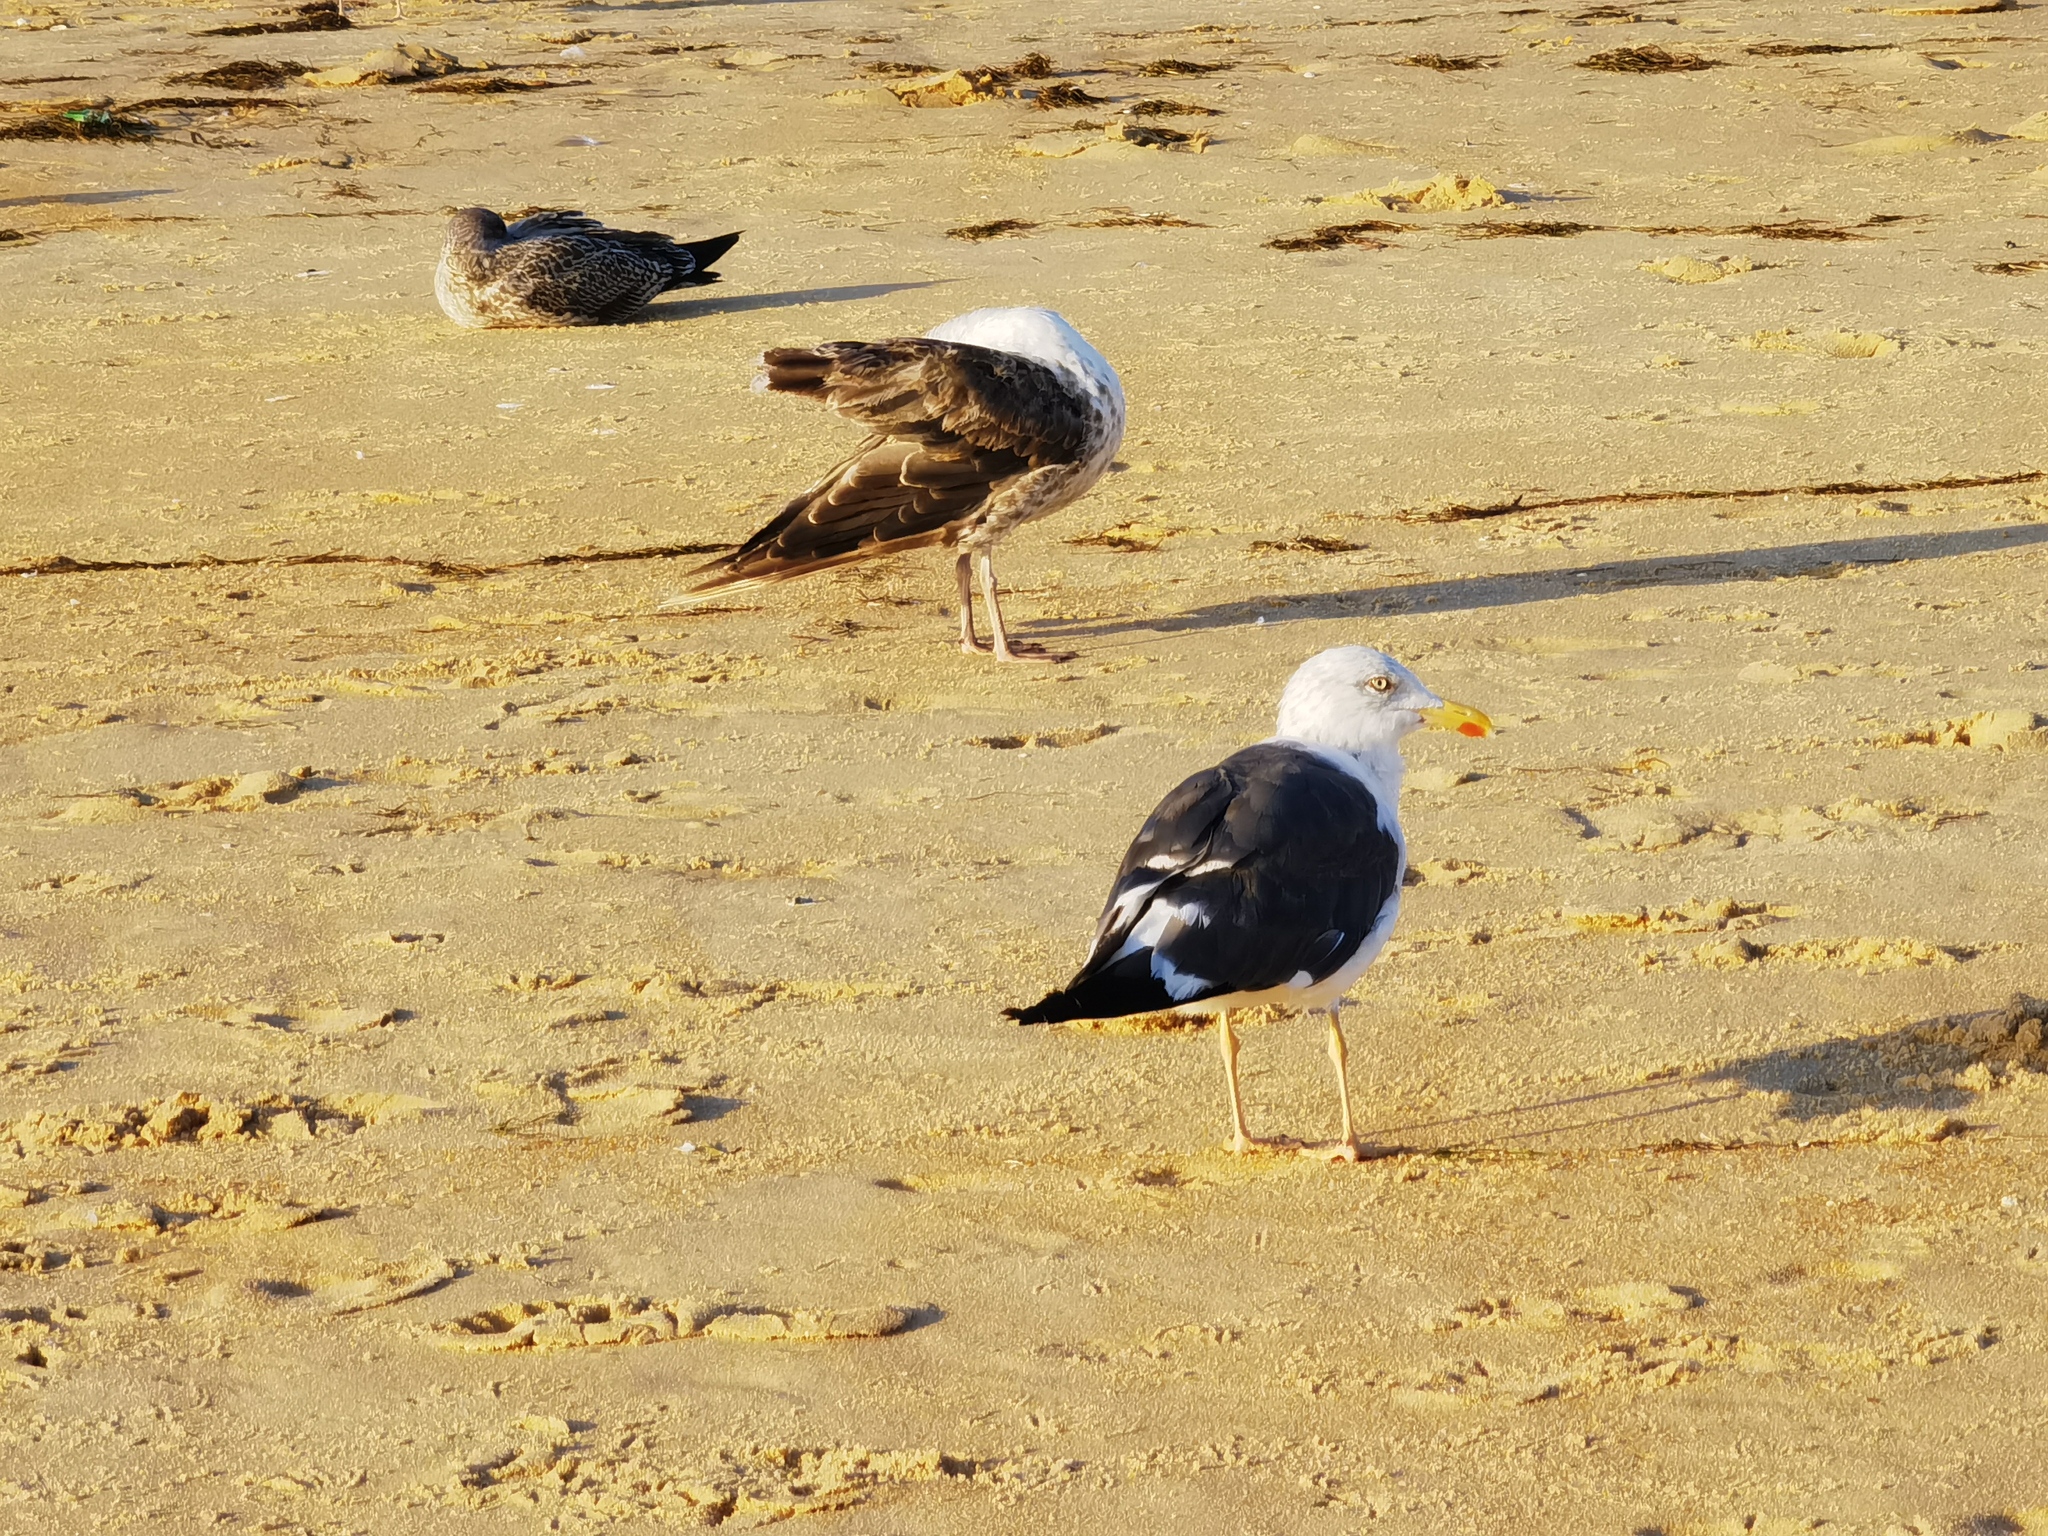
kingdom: Animalia
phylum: Chordata
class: Aves
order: Charadriiformes
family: Laridae
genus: Larus
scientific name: Larus fuscus
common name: Lesser black-backed gull
